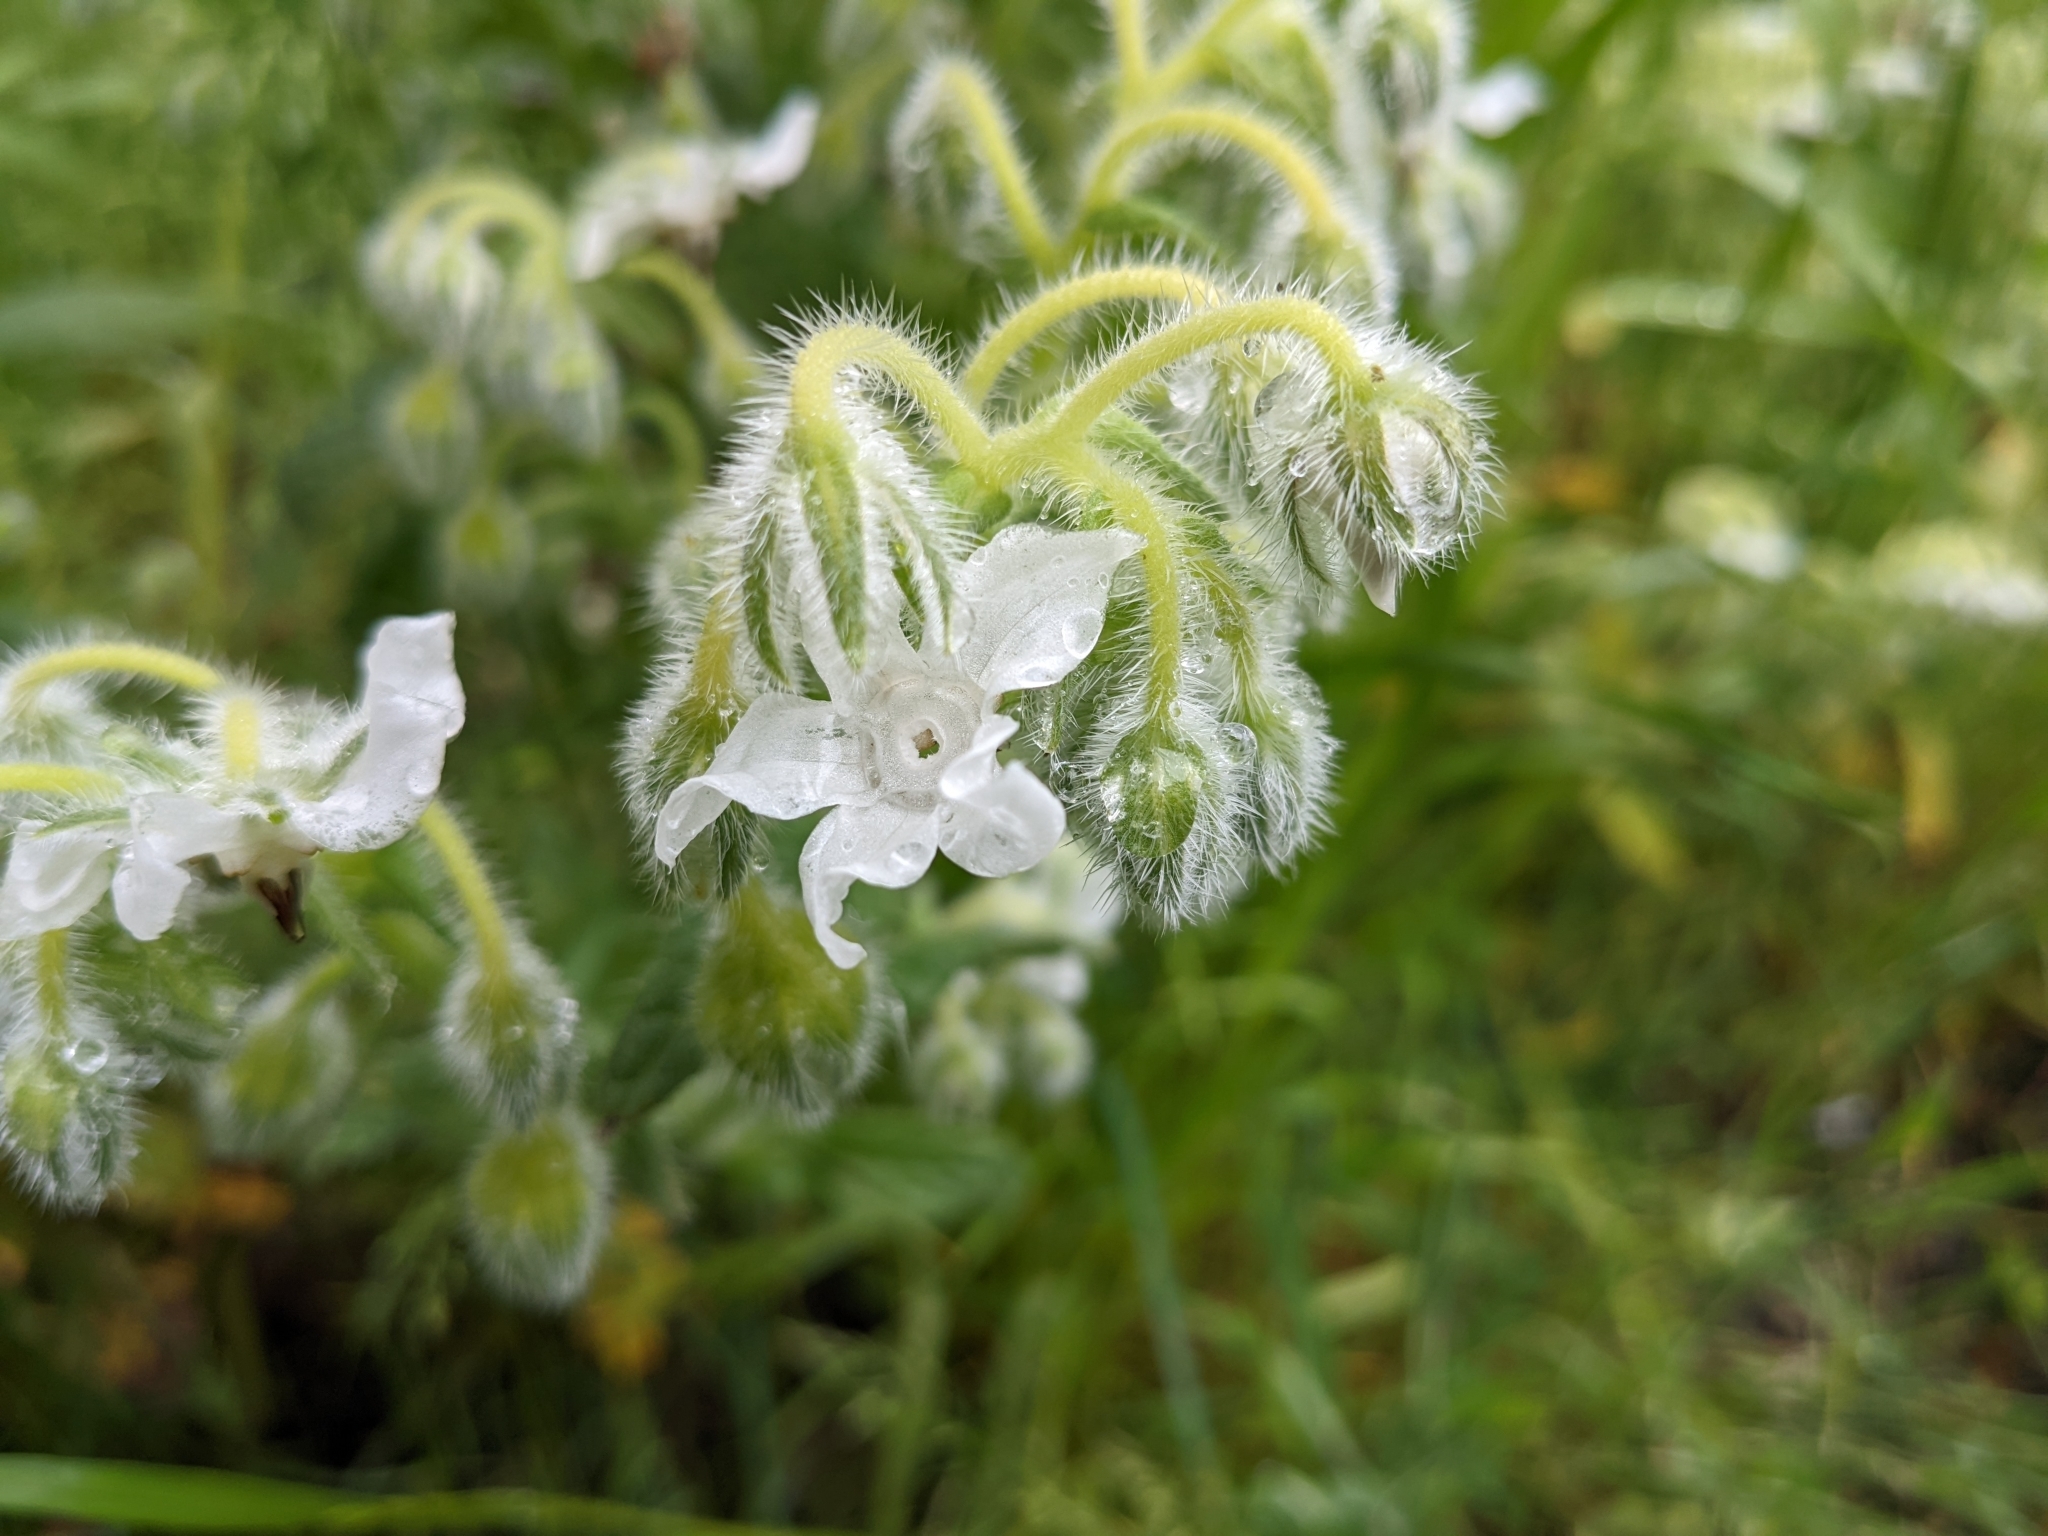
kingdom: Plantae
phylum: Tracheophyta
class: Magnoliopsida
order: Boraginales
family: Boraginaceae
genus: Borago
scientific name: Borago officinalis
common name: Borage
